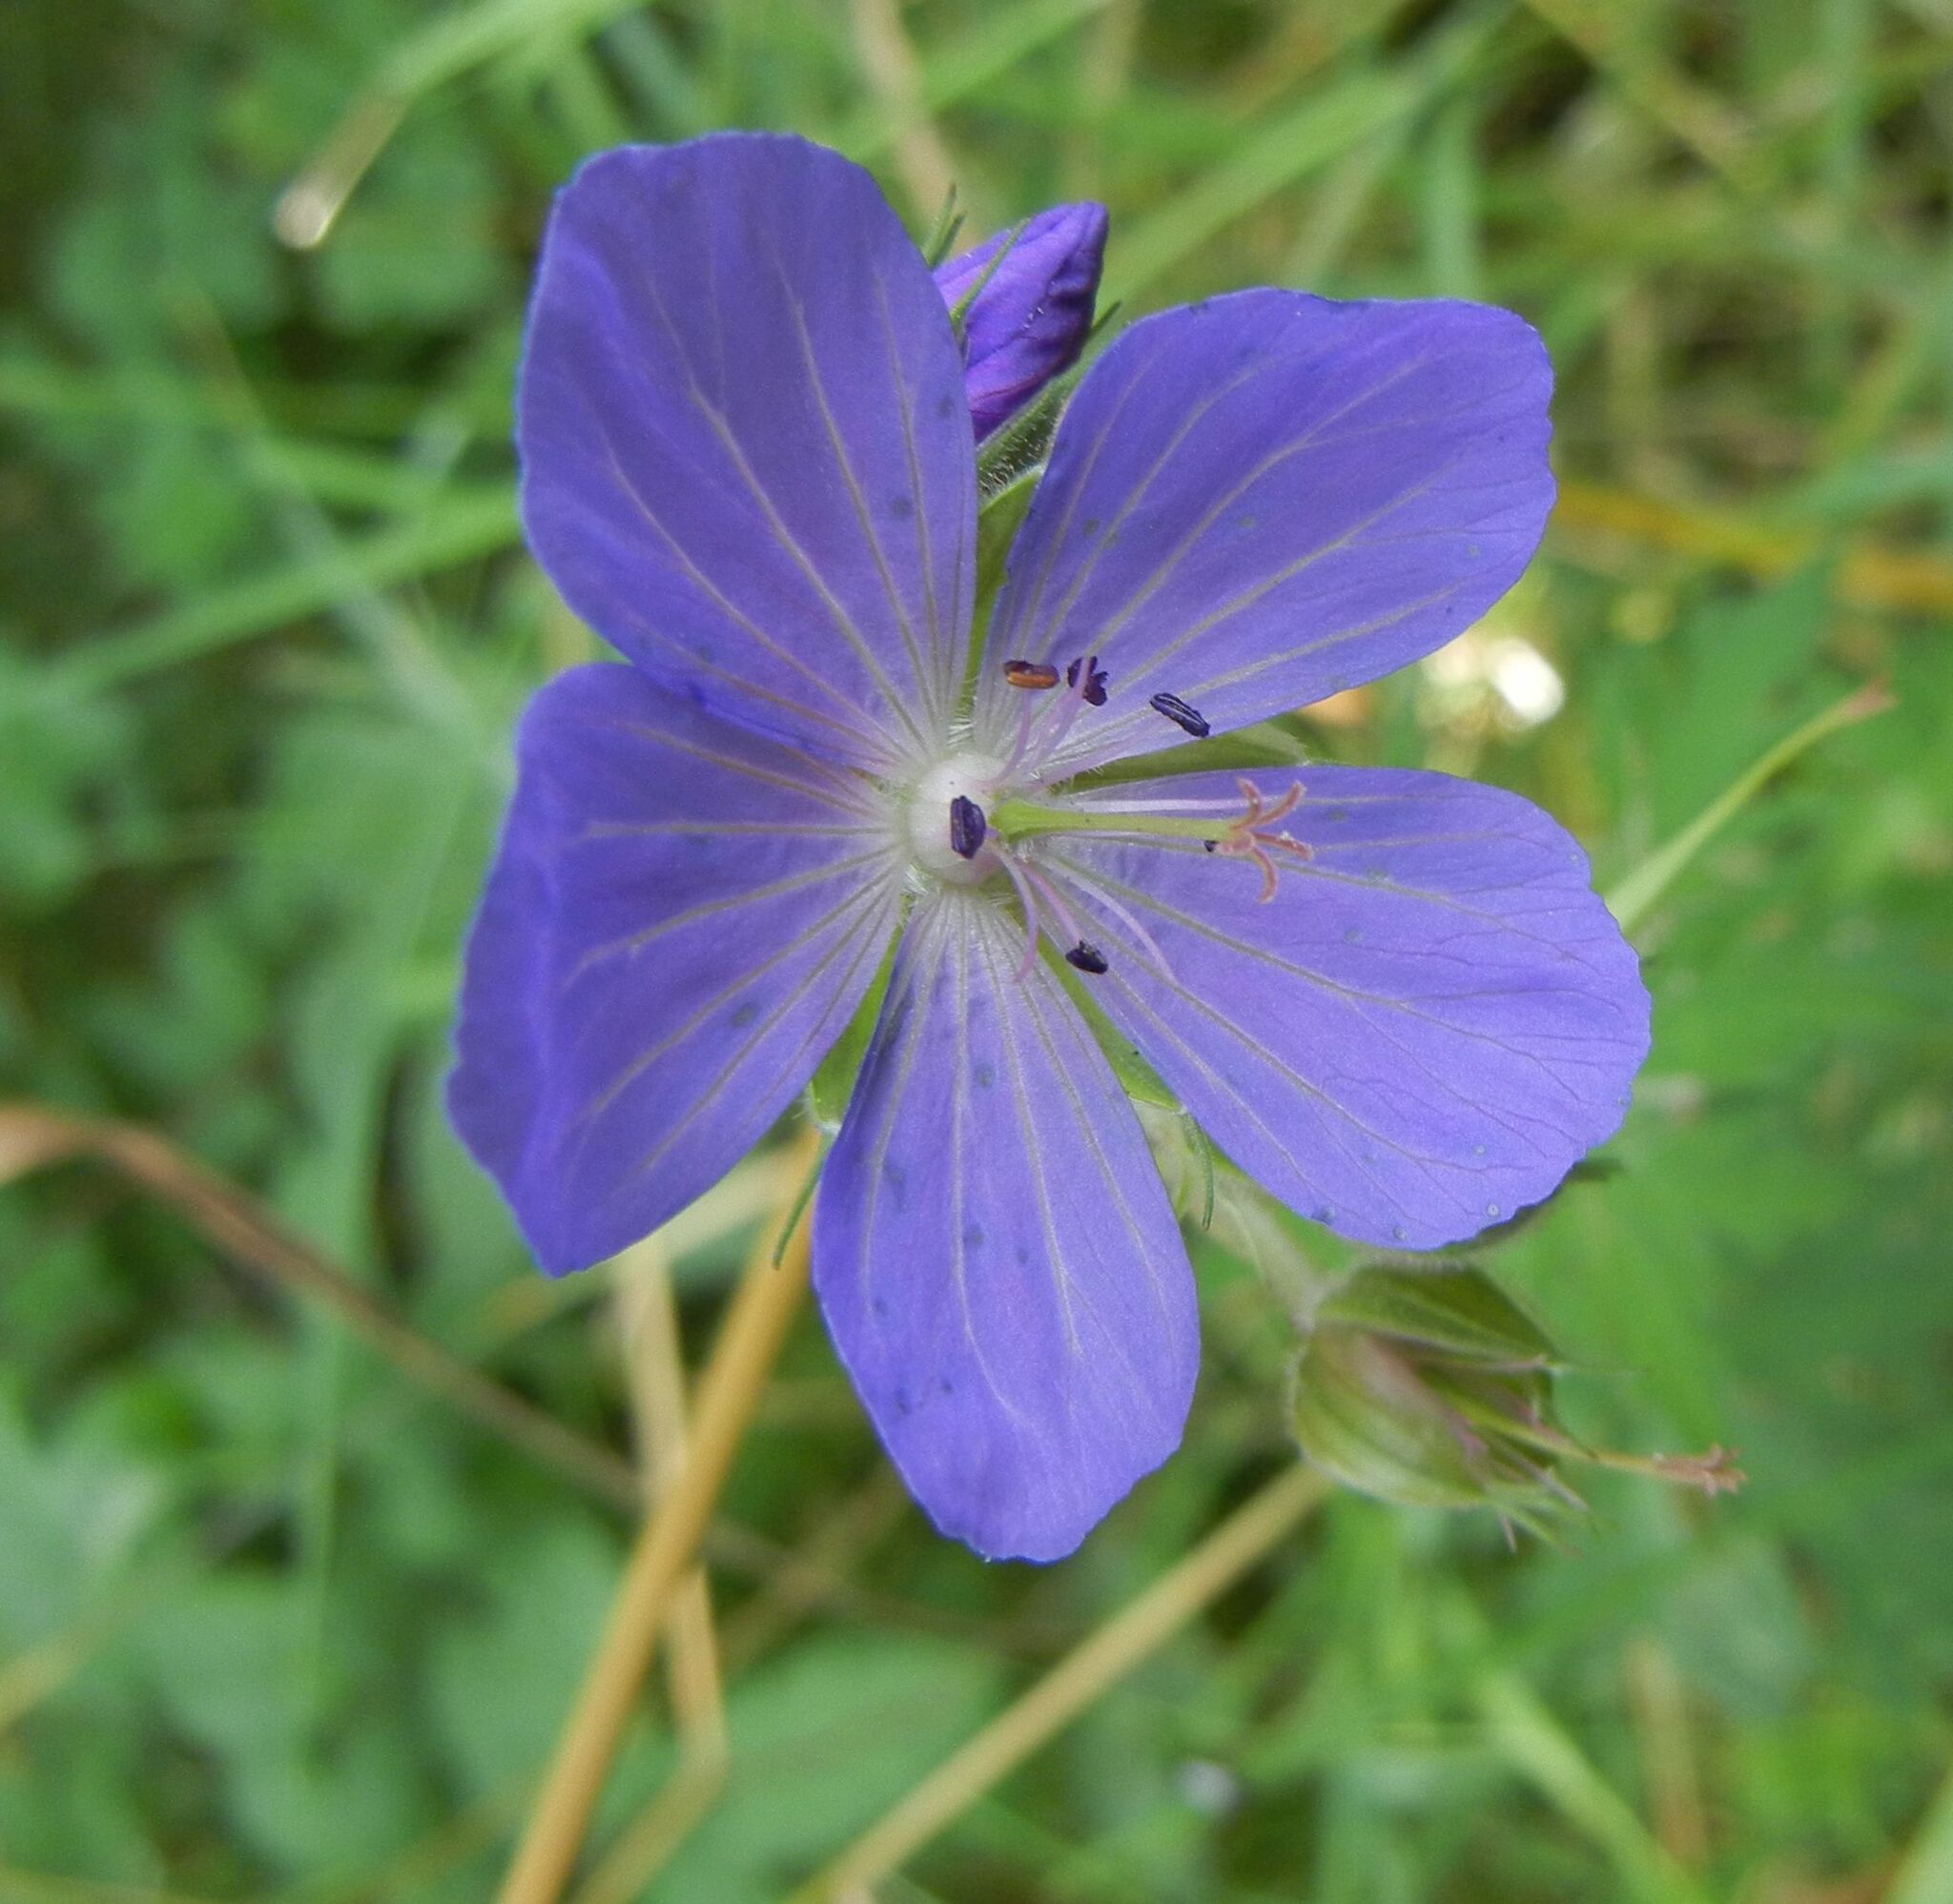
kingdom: Plantae
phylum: Tracheophyta
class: Magnoliopsida
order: Geraniales
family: Geraniaceae
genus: Geranium
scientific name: Geranium pratense
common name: Meadow crane's-bill
